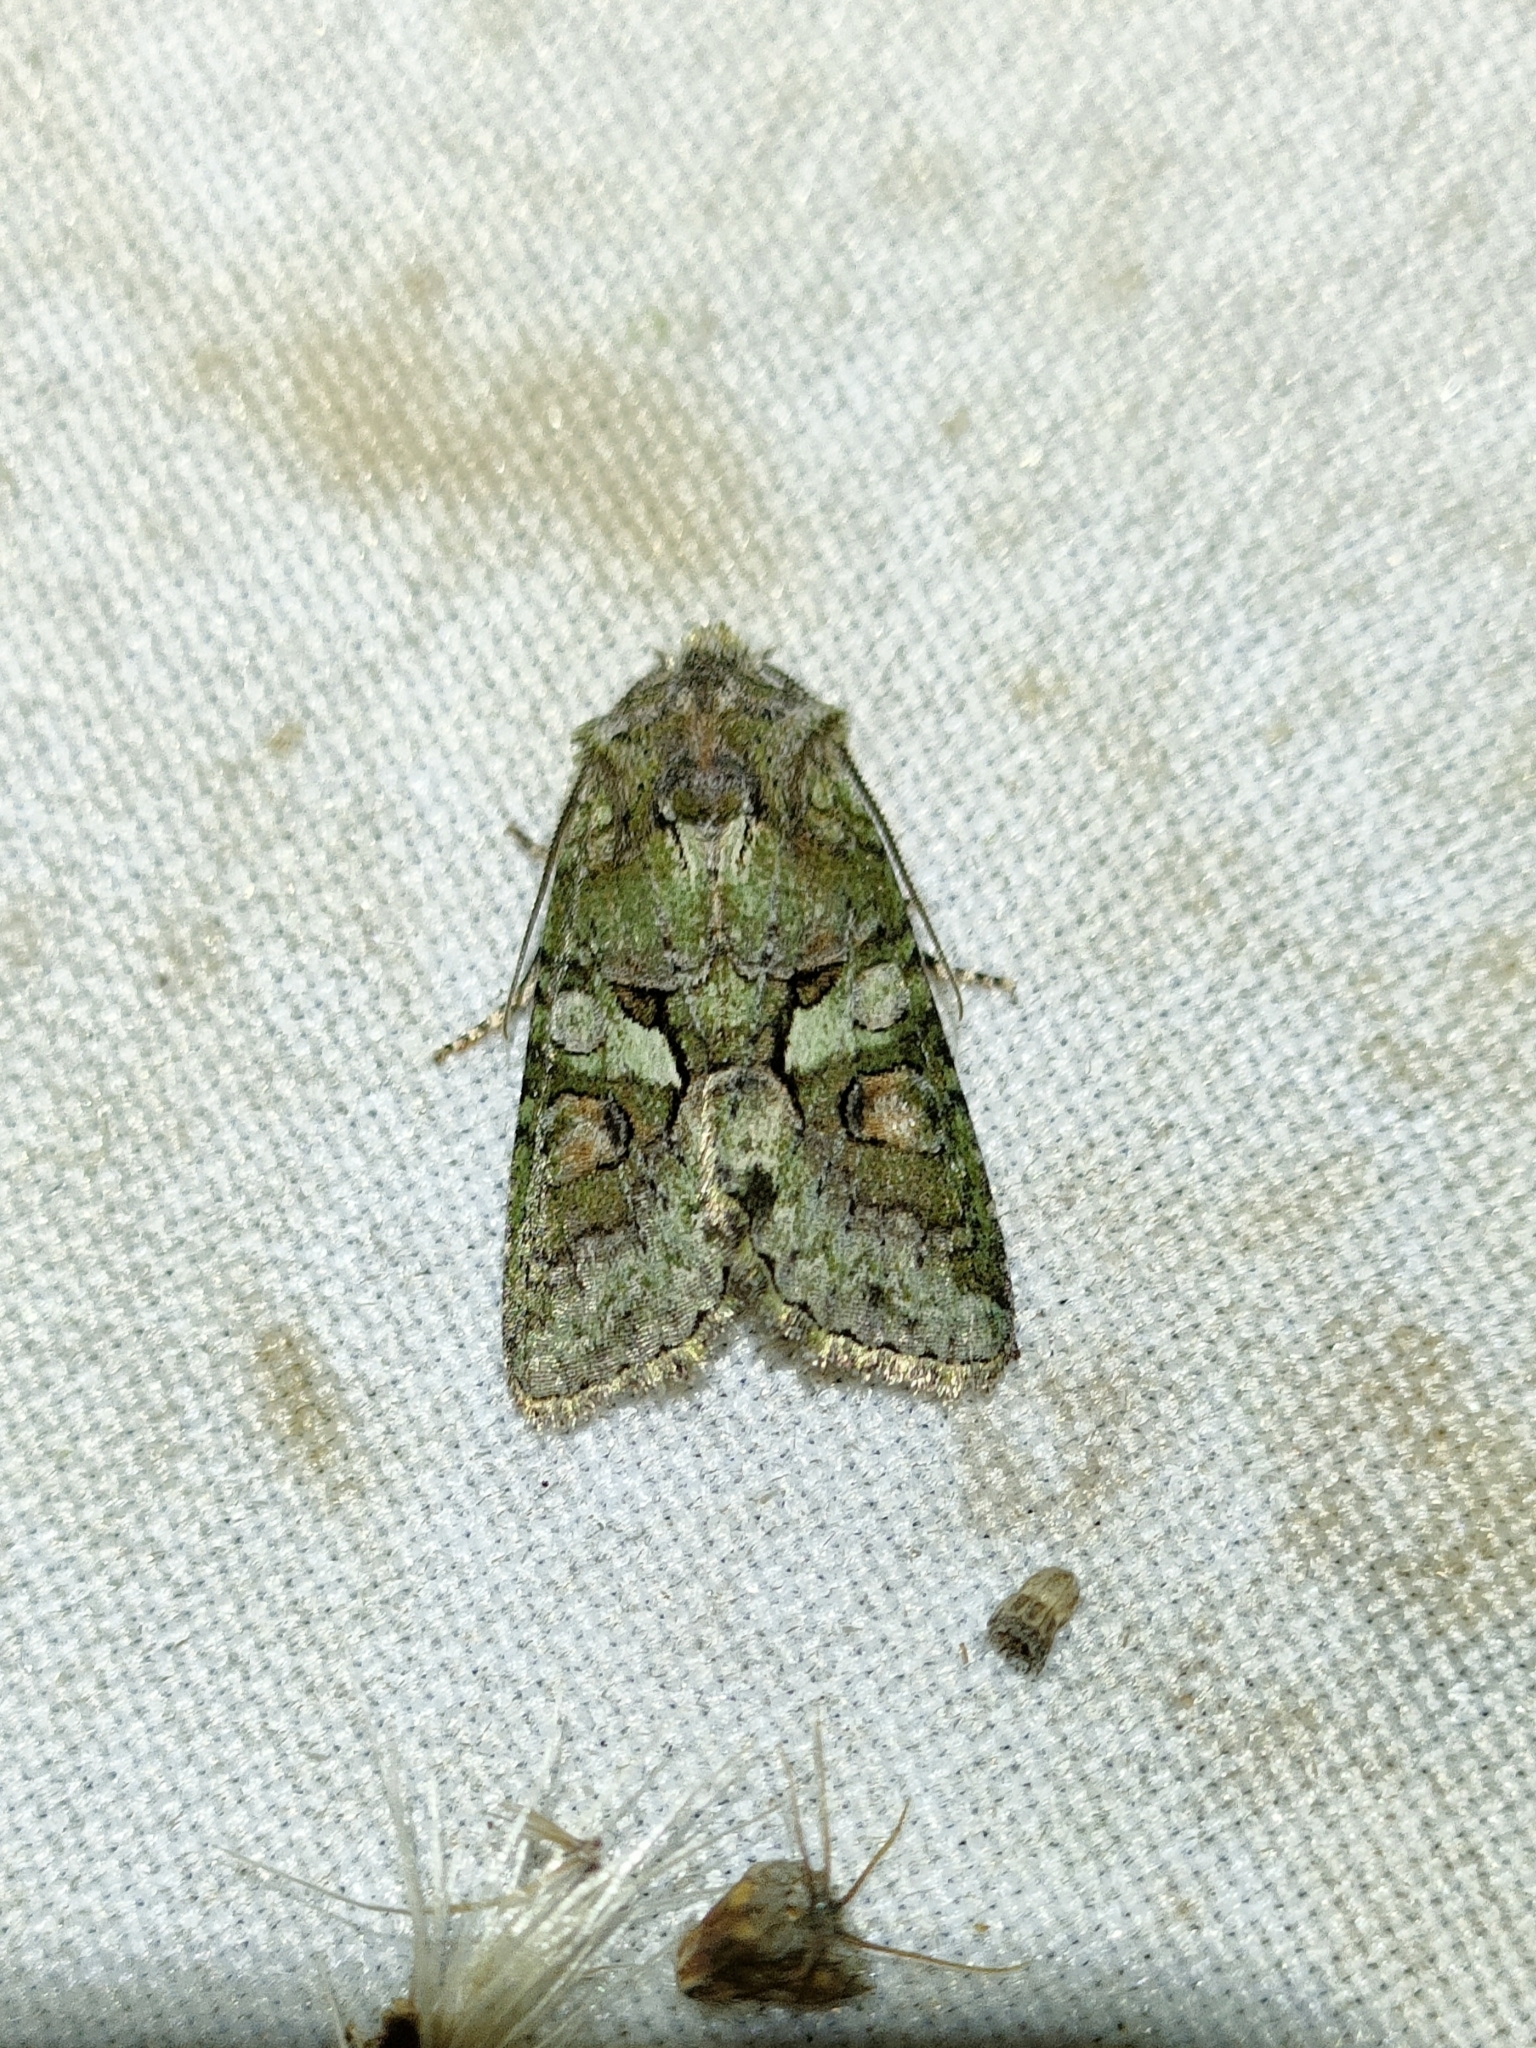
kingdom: Animalia
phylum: Arthropoda
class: Insecta
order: Lepidoptera
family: Noctuidae
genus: Dryobotodes
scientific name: Dryobotodes roboris
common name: Southern brindled green
